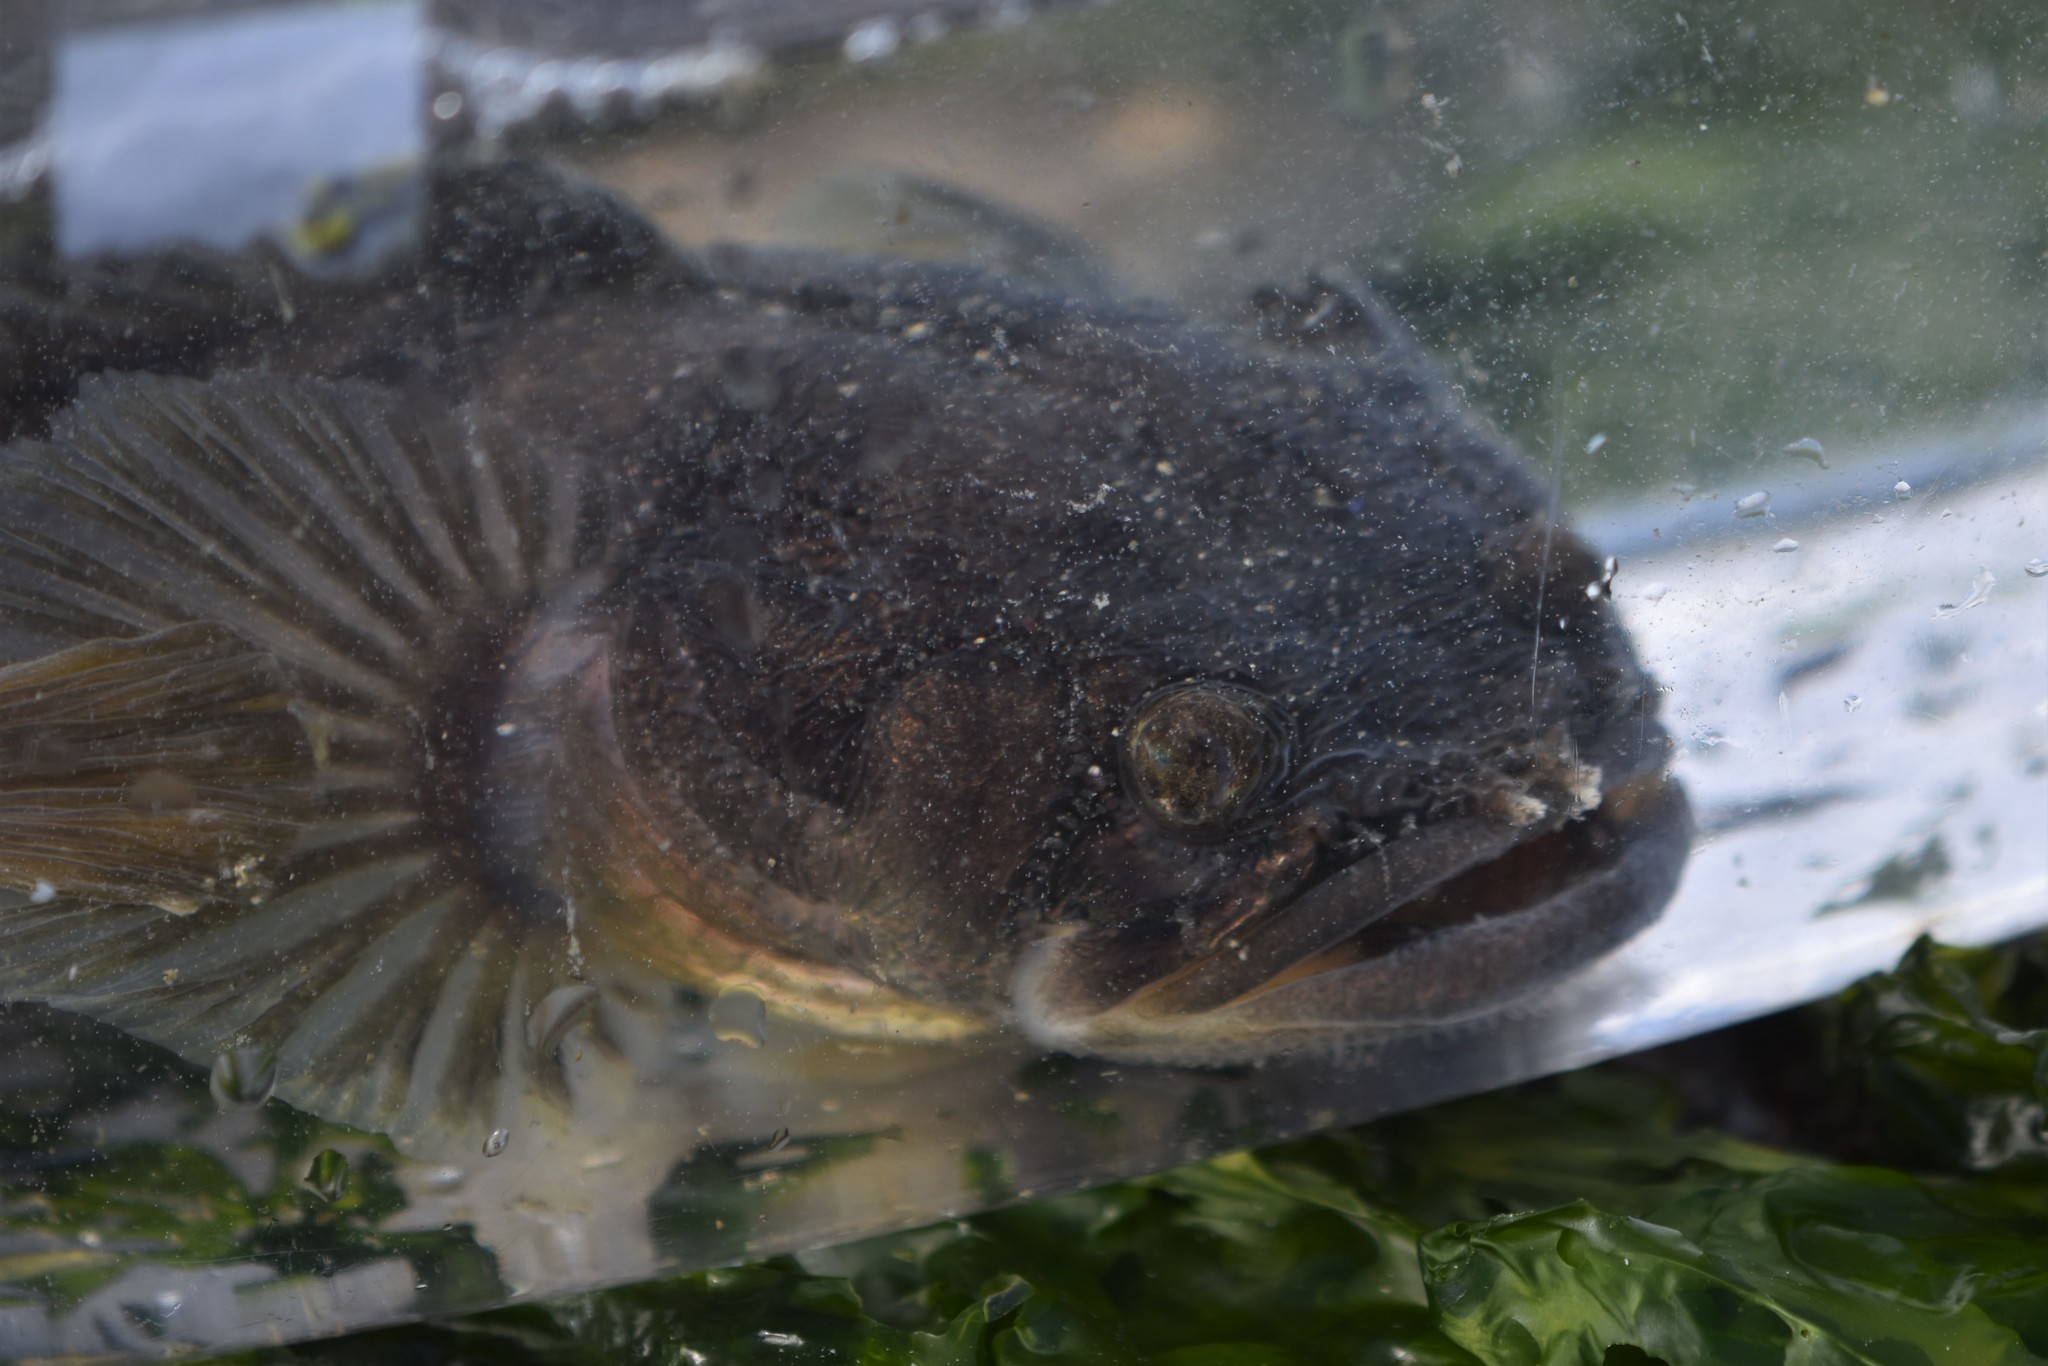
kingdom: Animalia
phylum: Chordata
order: Batrachoidiformes
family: Batrachoididae
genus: Porichthys
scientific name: Porichthys notatus
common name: Plainfin midshipman
